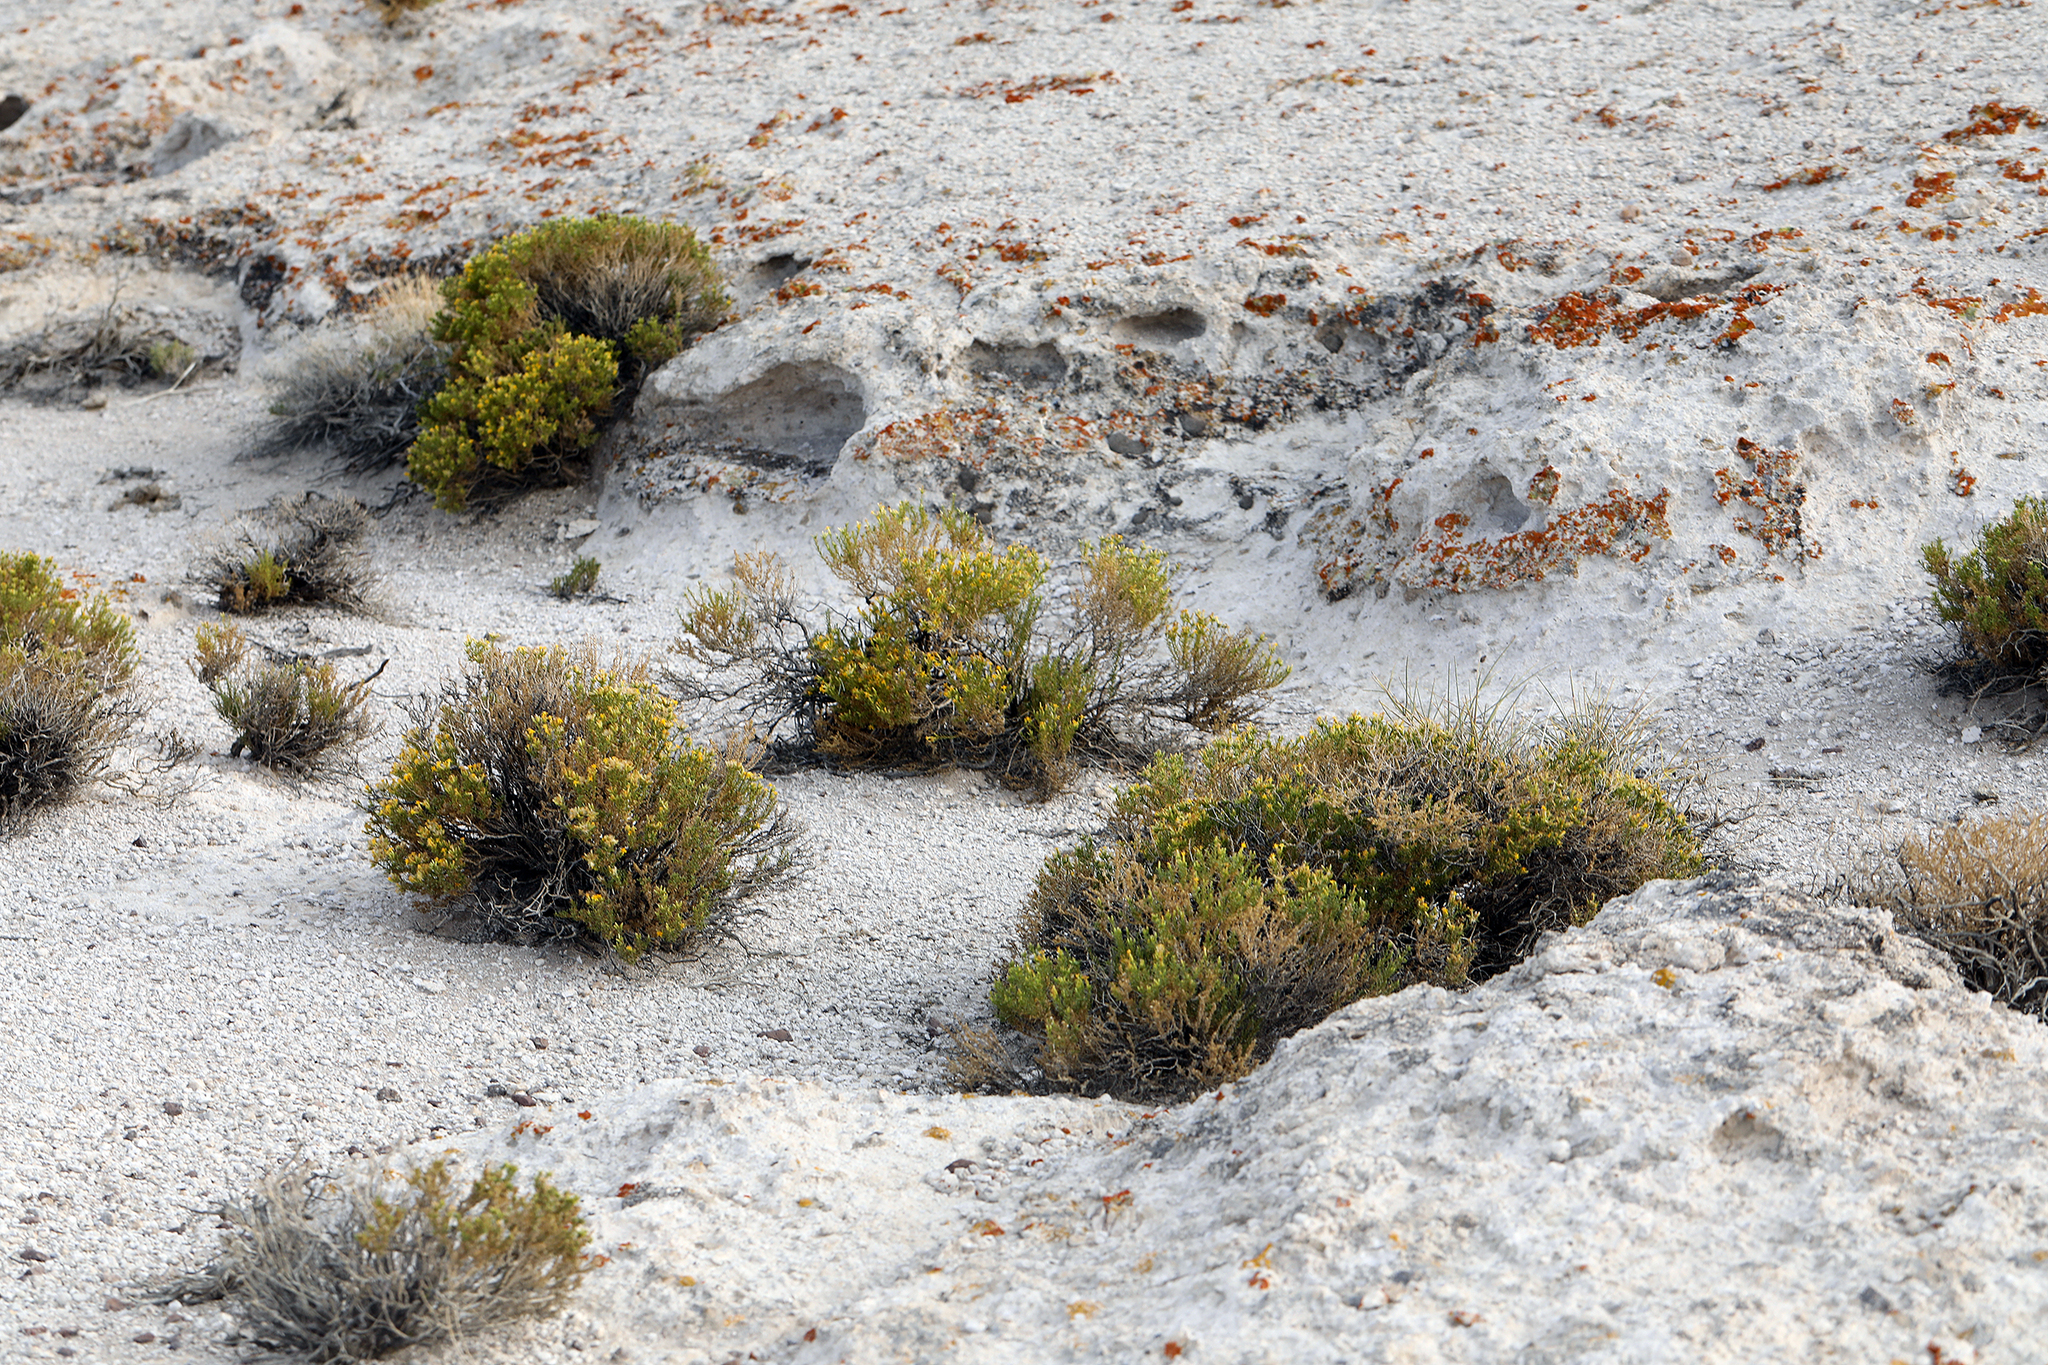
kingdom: Plantae
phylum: Tracheophyta
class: Magnoliopsida
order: Asterales
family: Asteraceae
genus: Ericameria
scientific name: Ericameria nana
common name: Dwarf goldenbush
